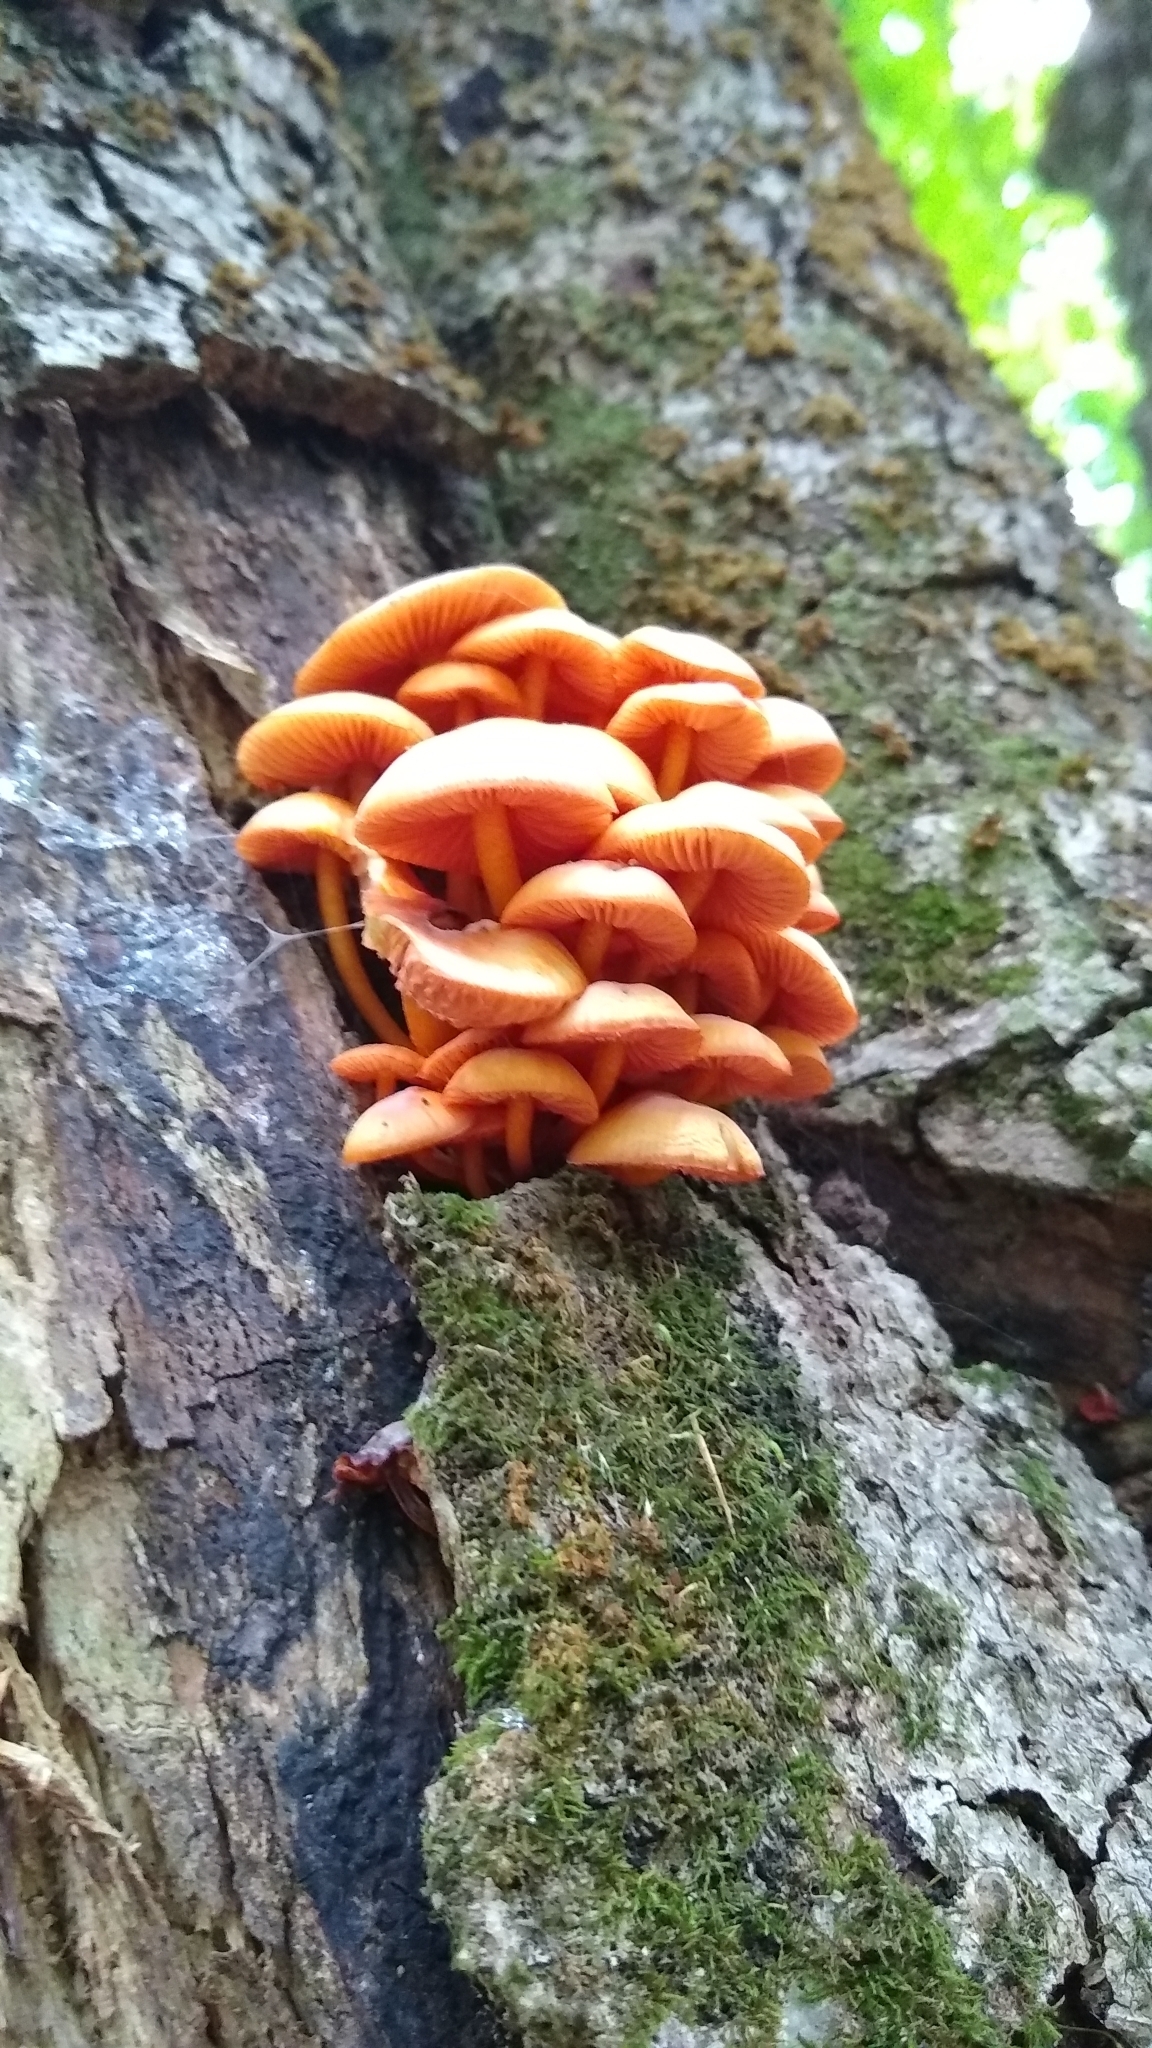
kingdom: Fungi
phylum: Basidiomycota
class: Agaricomycetes
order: Agaricales
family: Mycenaceae
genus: Mycena
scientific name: Mycena leaiana
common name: Orange mycena
